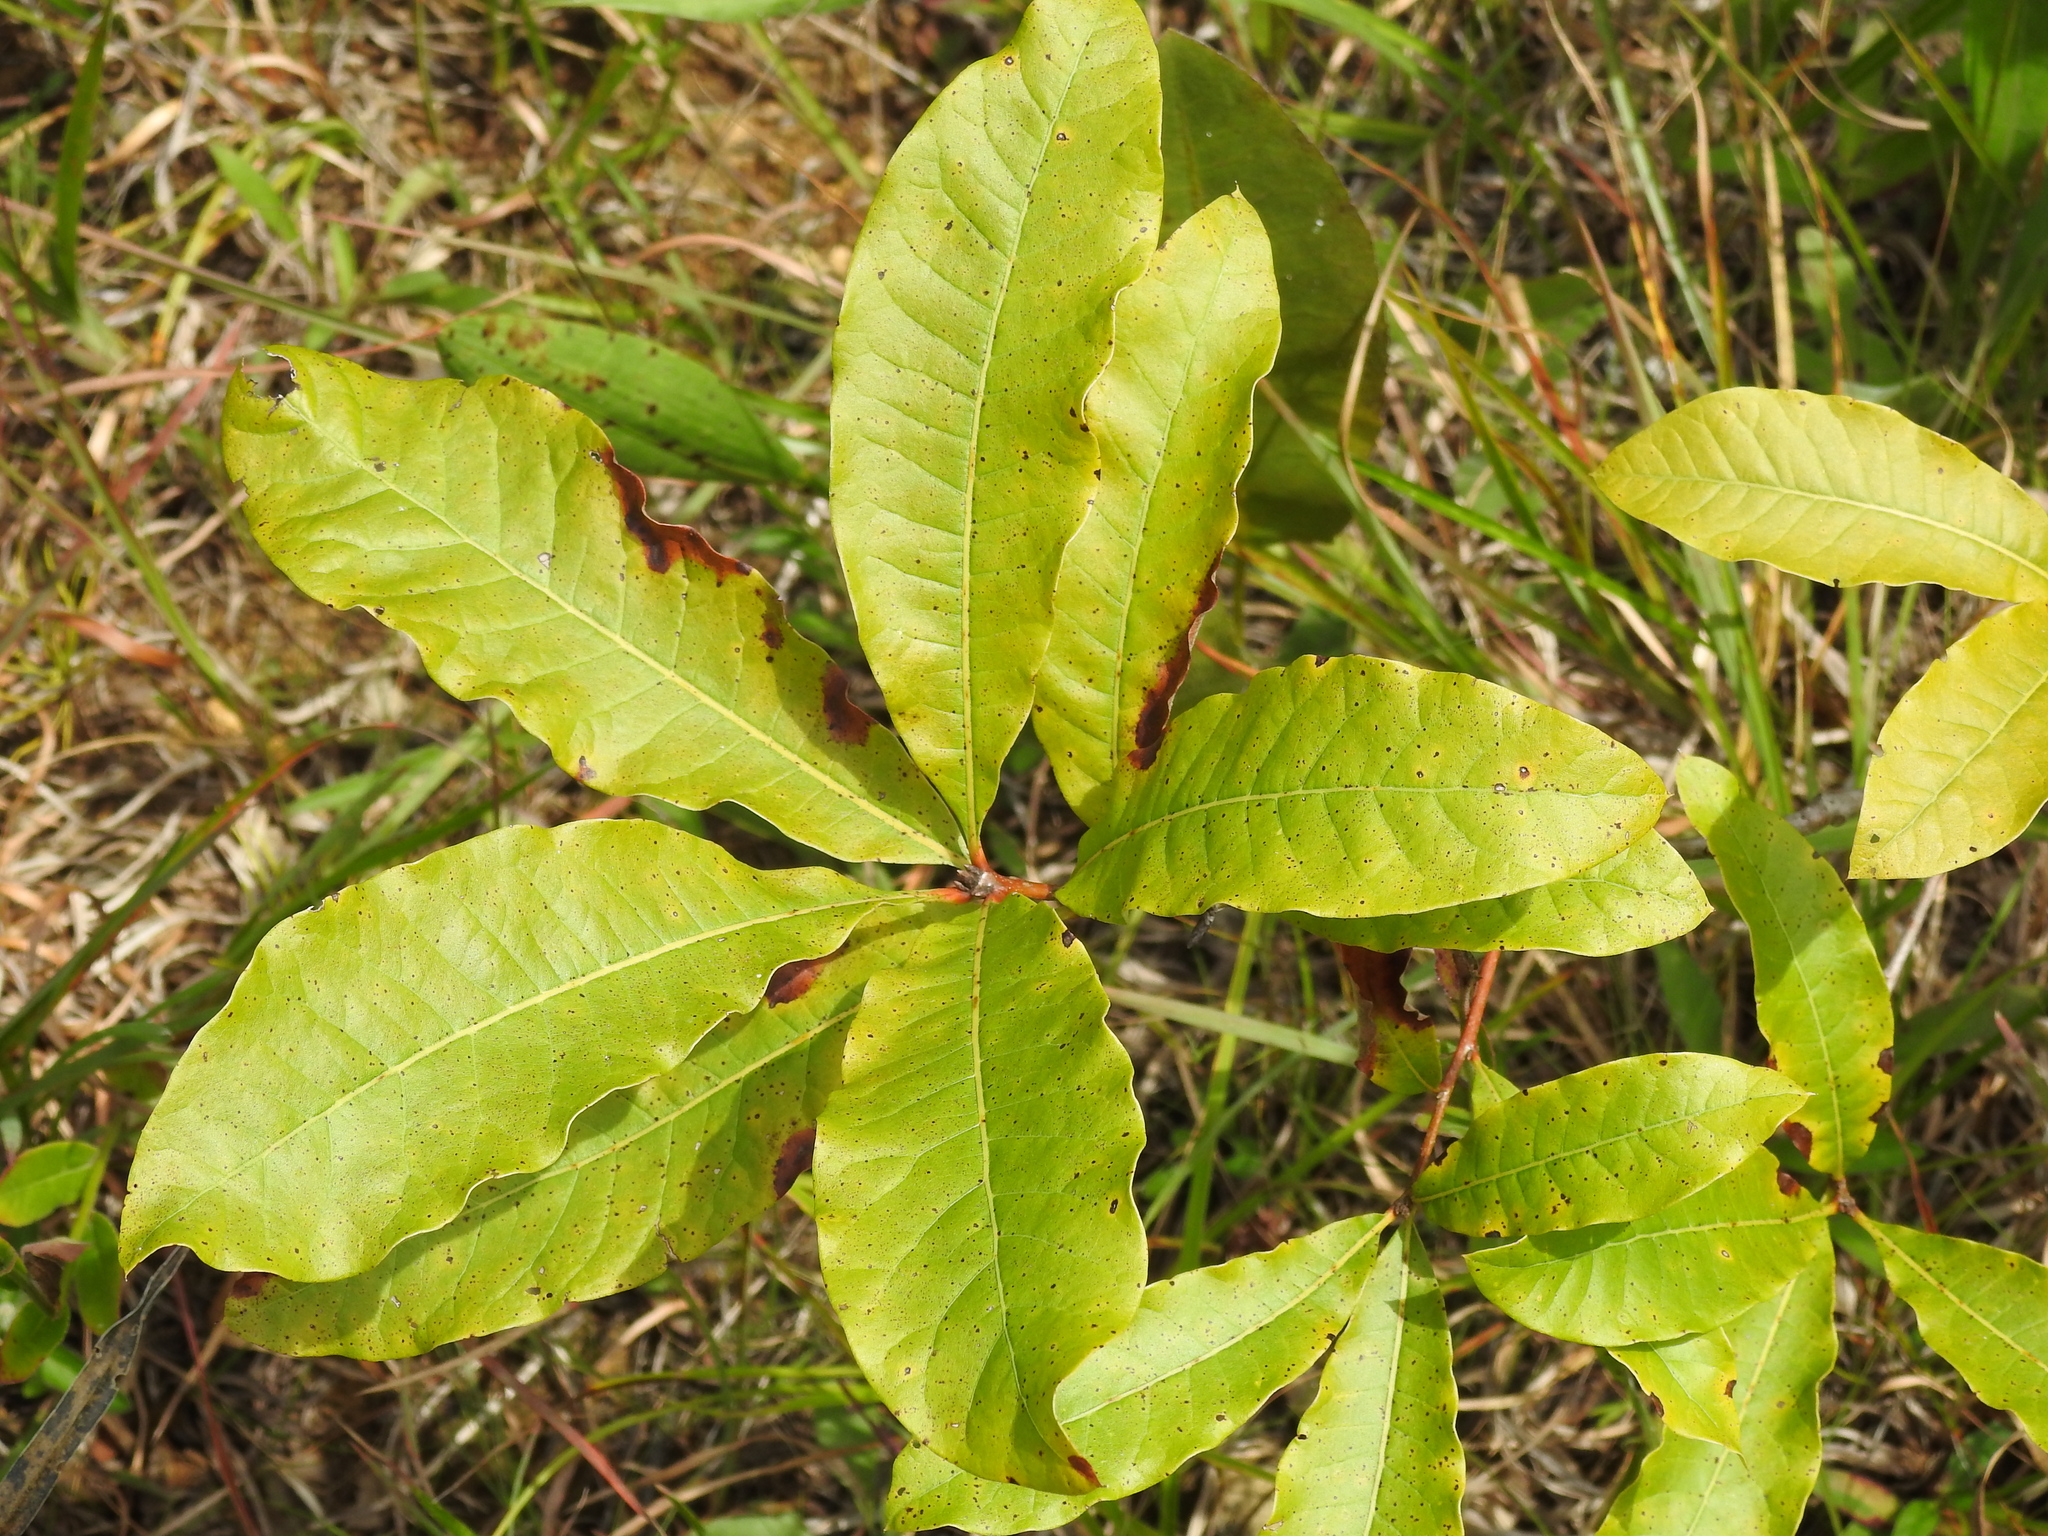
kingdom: Plantae
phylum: Tracheophyta
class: Magnoliopsida
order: Fagales
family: Fagaceae
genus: Quercus
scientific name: Quercus imbricaria
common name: Shingle oak
